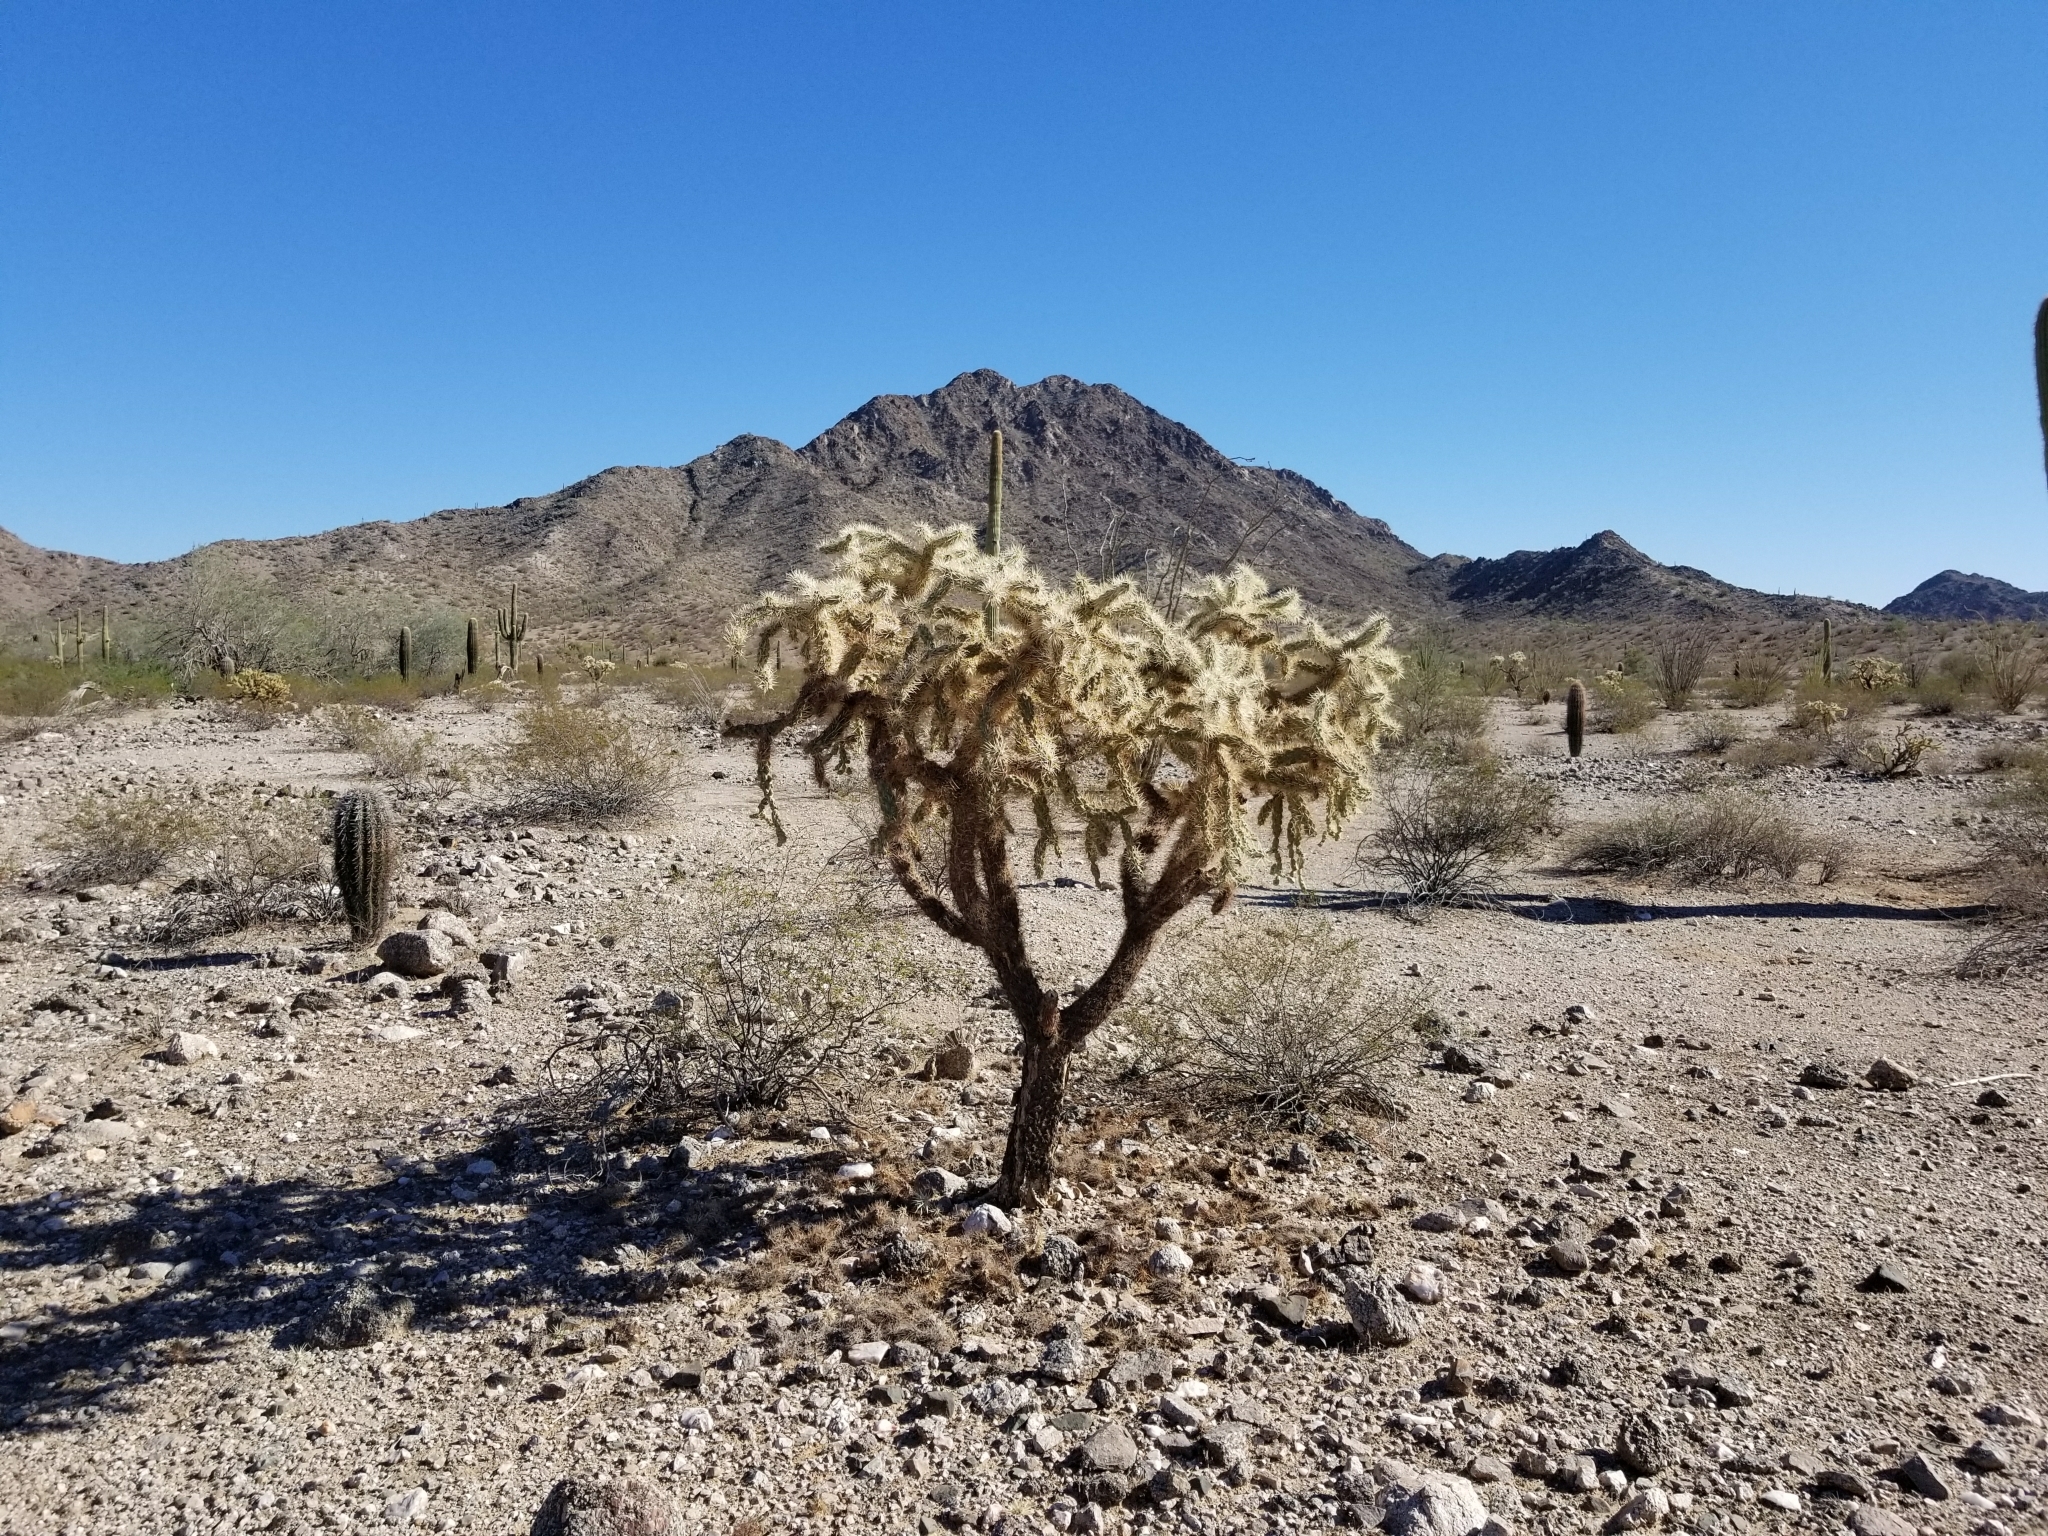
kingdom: Plantae
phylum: Tracheophyta
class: Magnoliopsida
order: Caryophyllales
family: Cactaceae
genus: Cylindropuntia
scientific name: Cylindropuntia fulgida
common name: Jumping cholla
